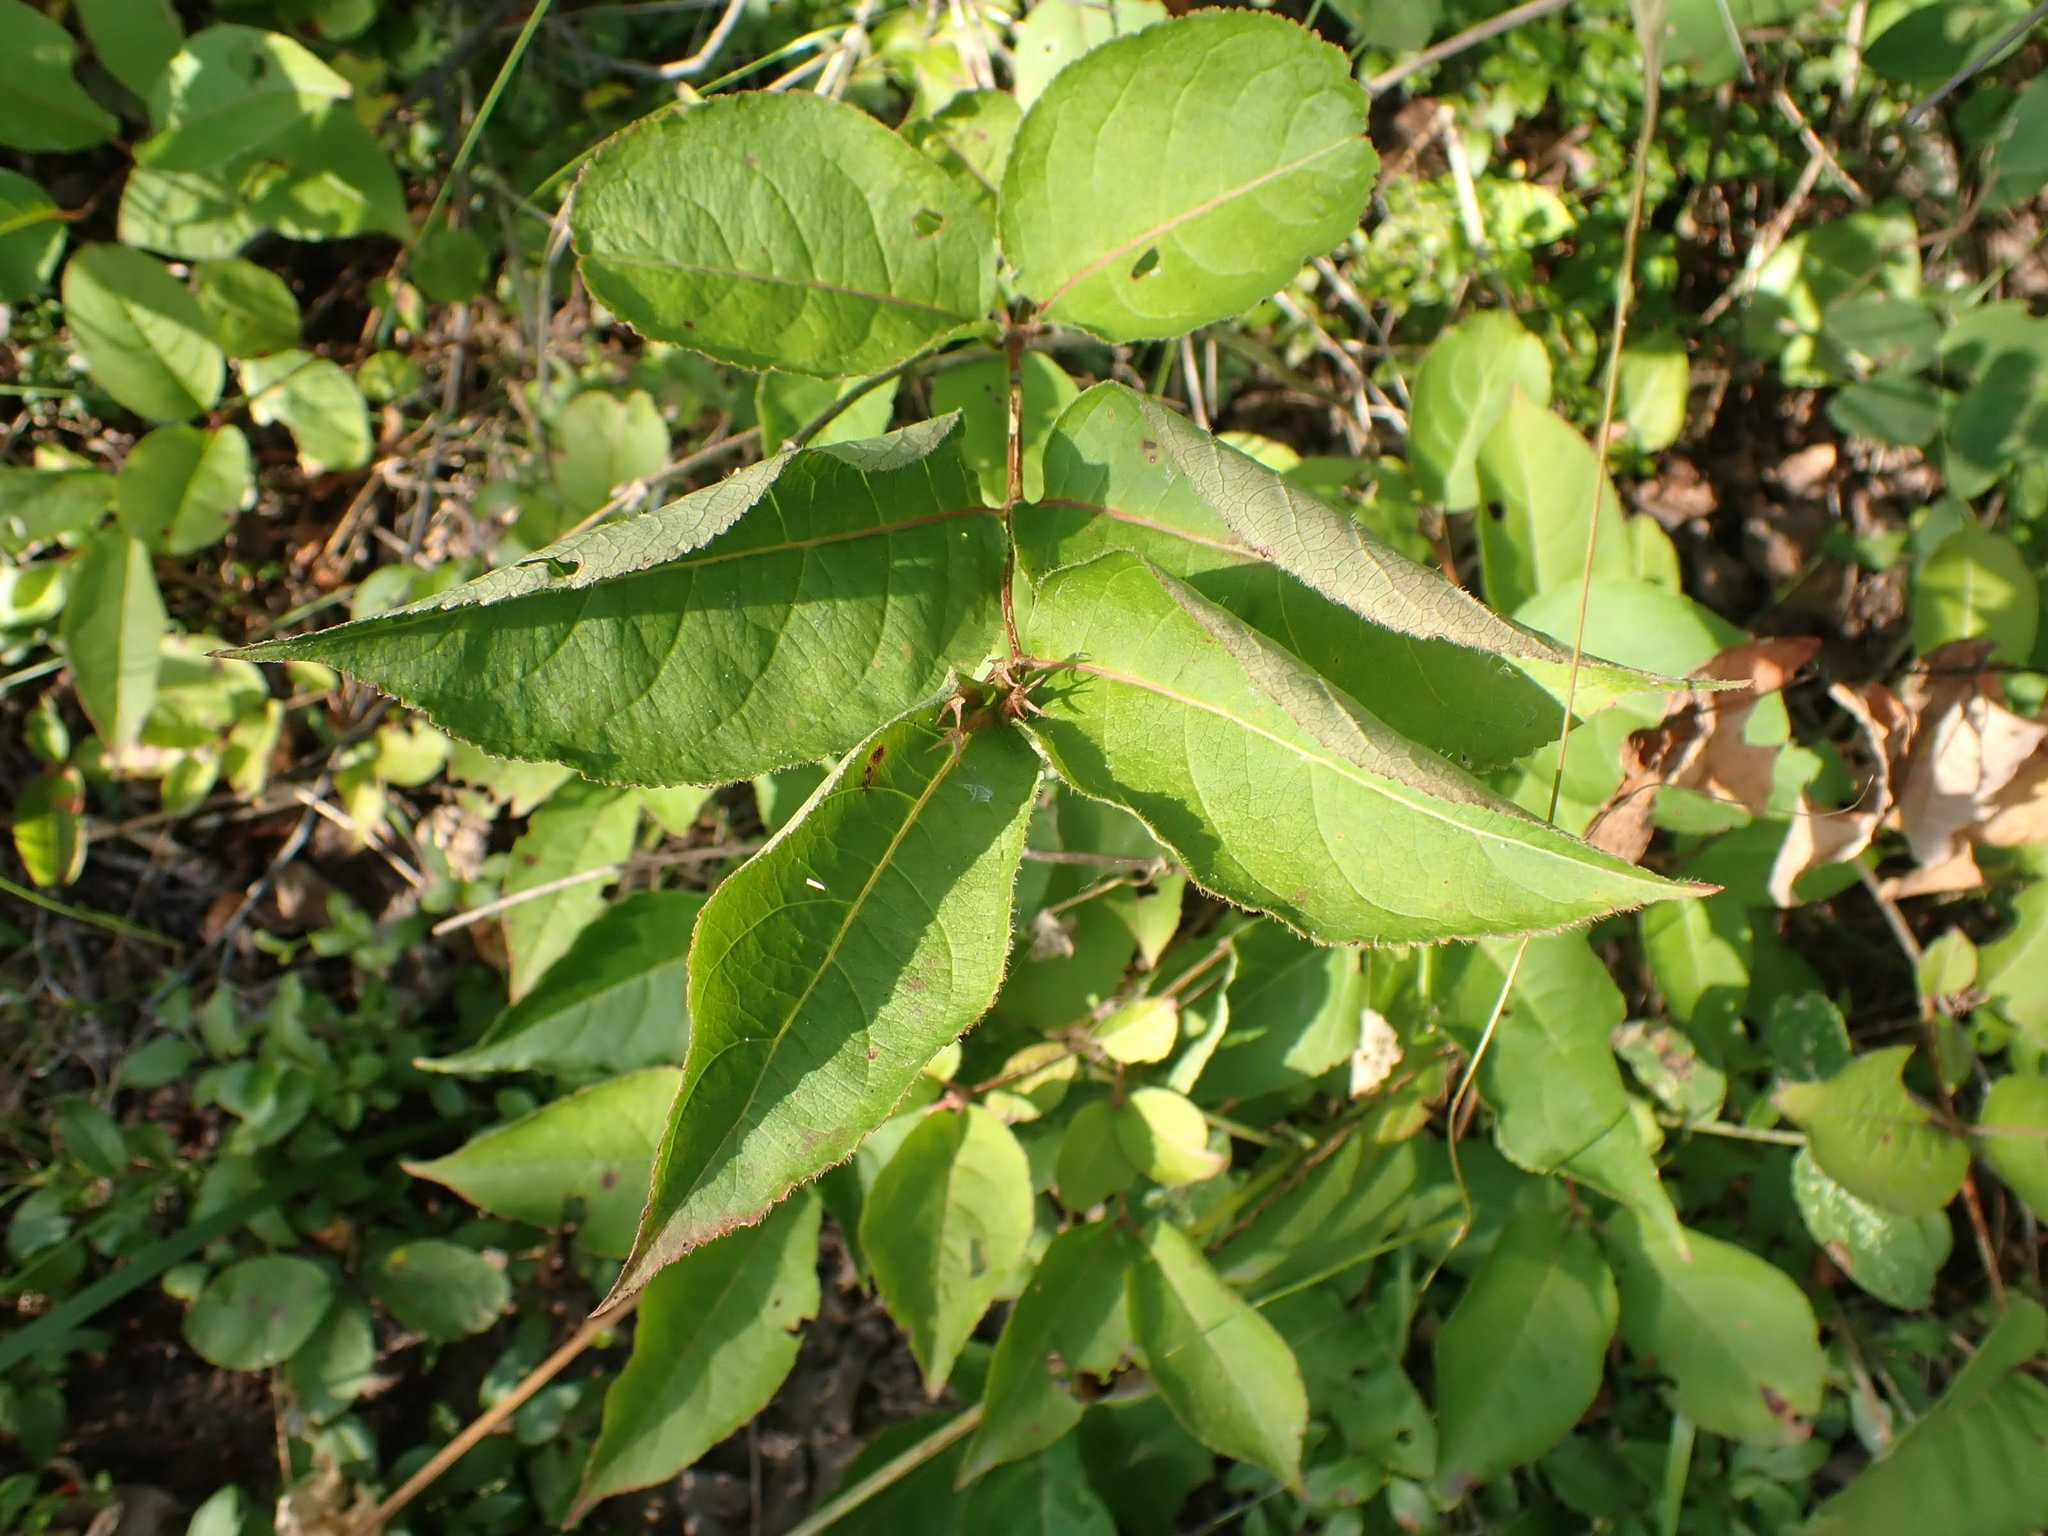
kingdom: Plantae
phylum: Tracheophyta
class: Magnoliopsida
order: Dipsacales
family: Caprifoliaceae
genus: Diervilla
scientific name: Diervilla lonicera
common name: Bush-honeysuckle
